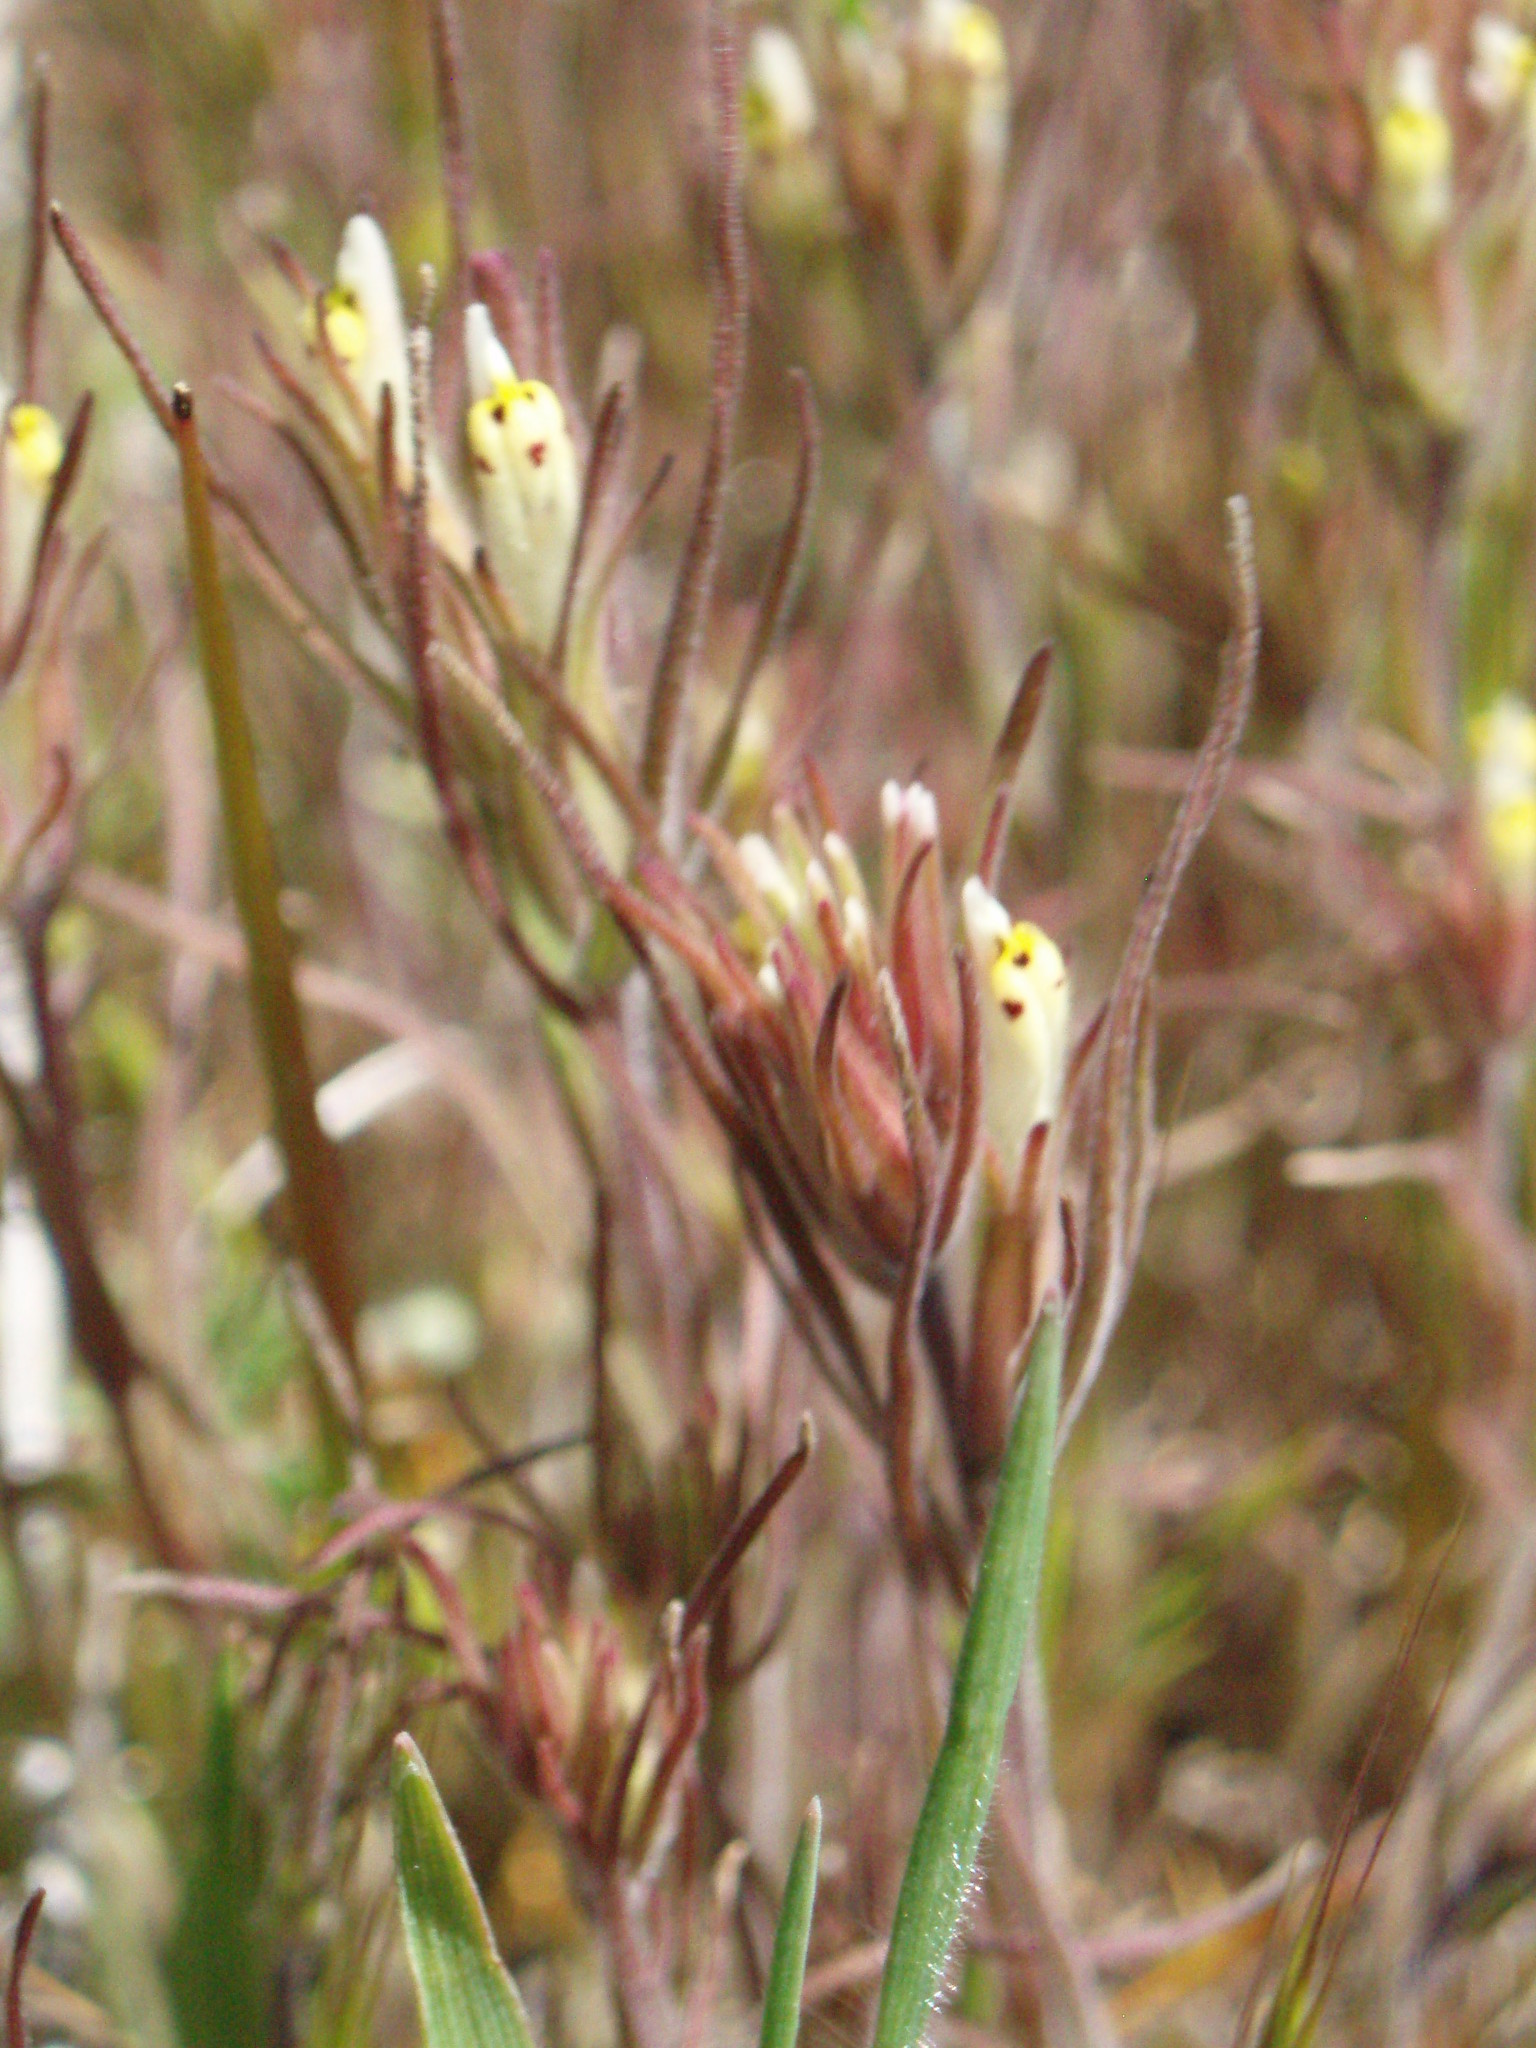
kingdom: Plantae
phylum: Tracheophyta
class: Magnoliopsida
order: Lamiales
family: Orobanchaceae
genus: Castilleja
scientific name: Castilleja attenuata
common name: Valley tassels
